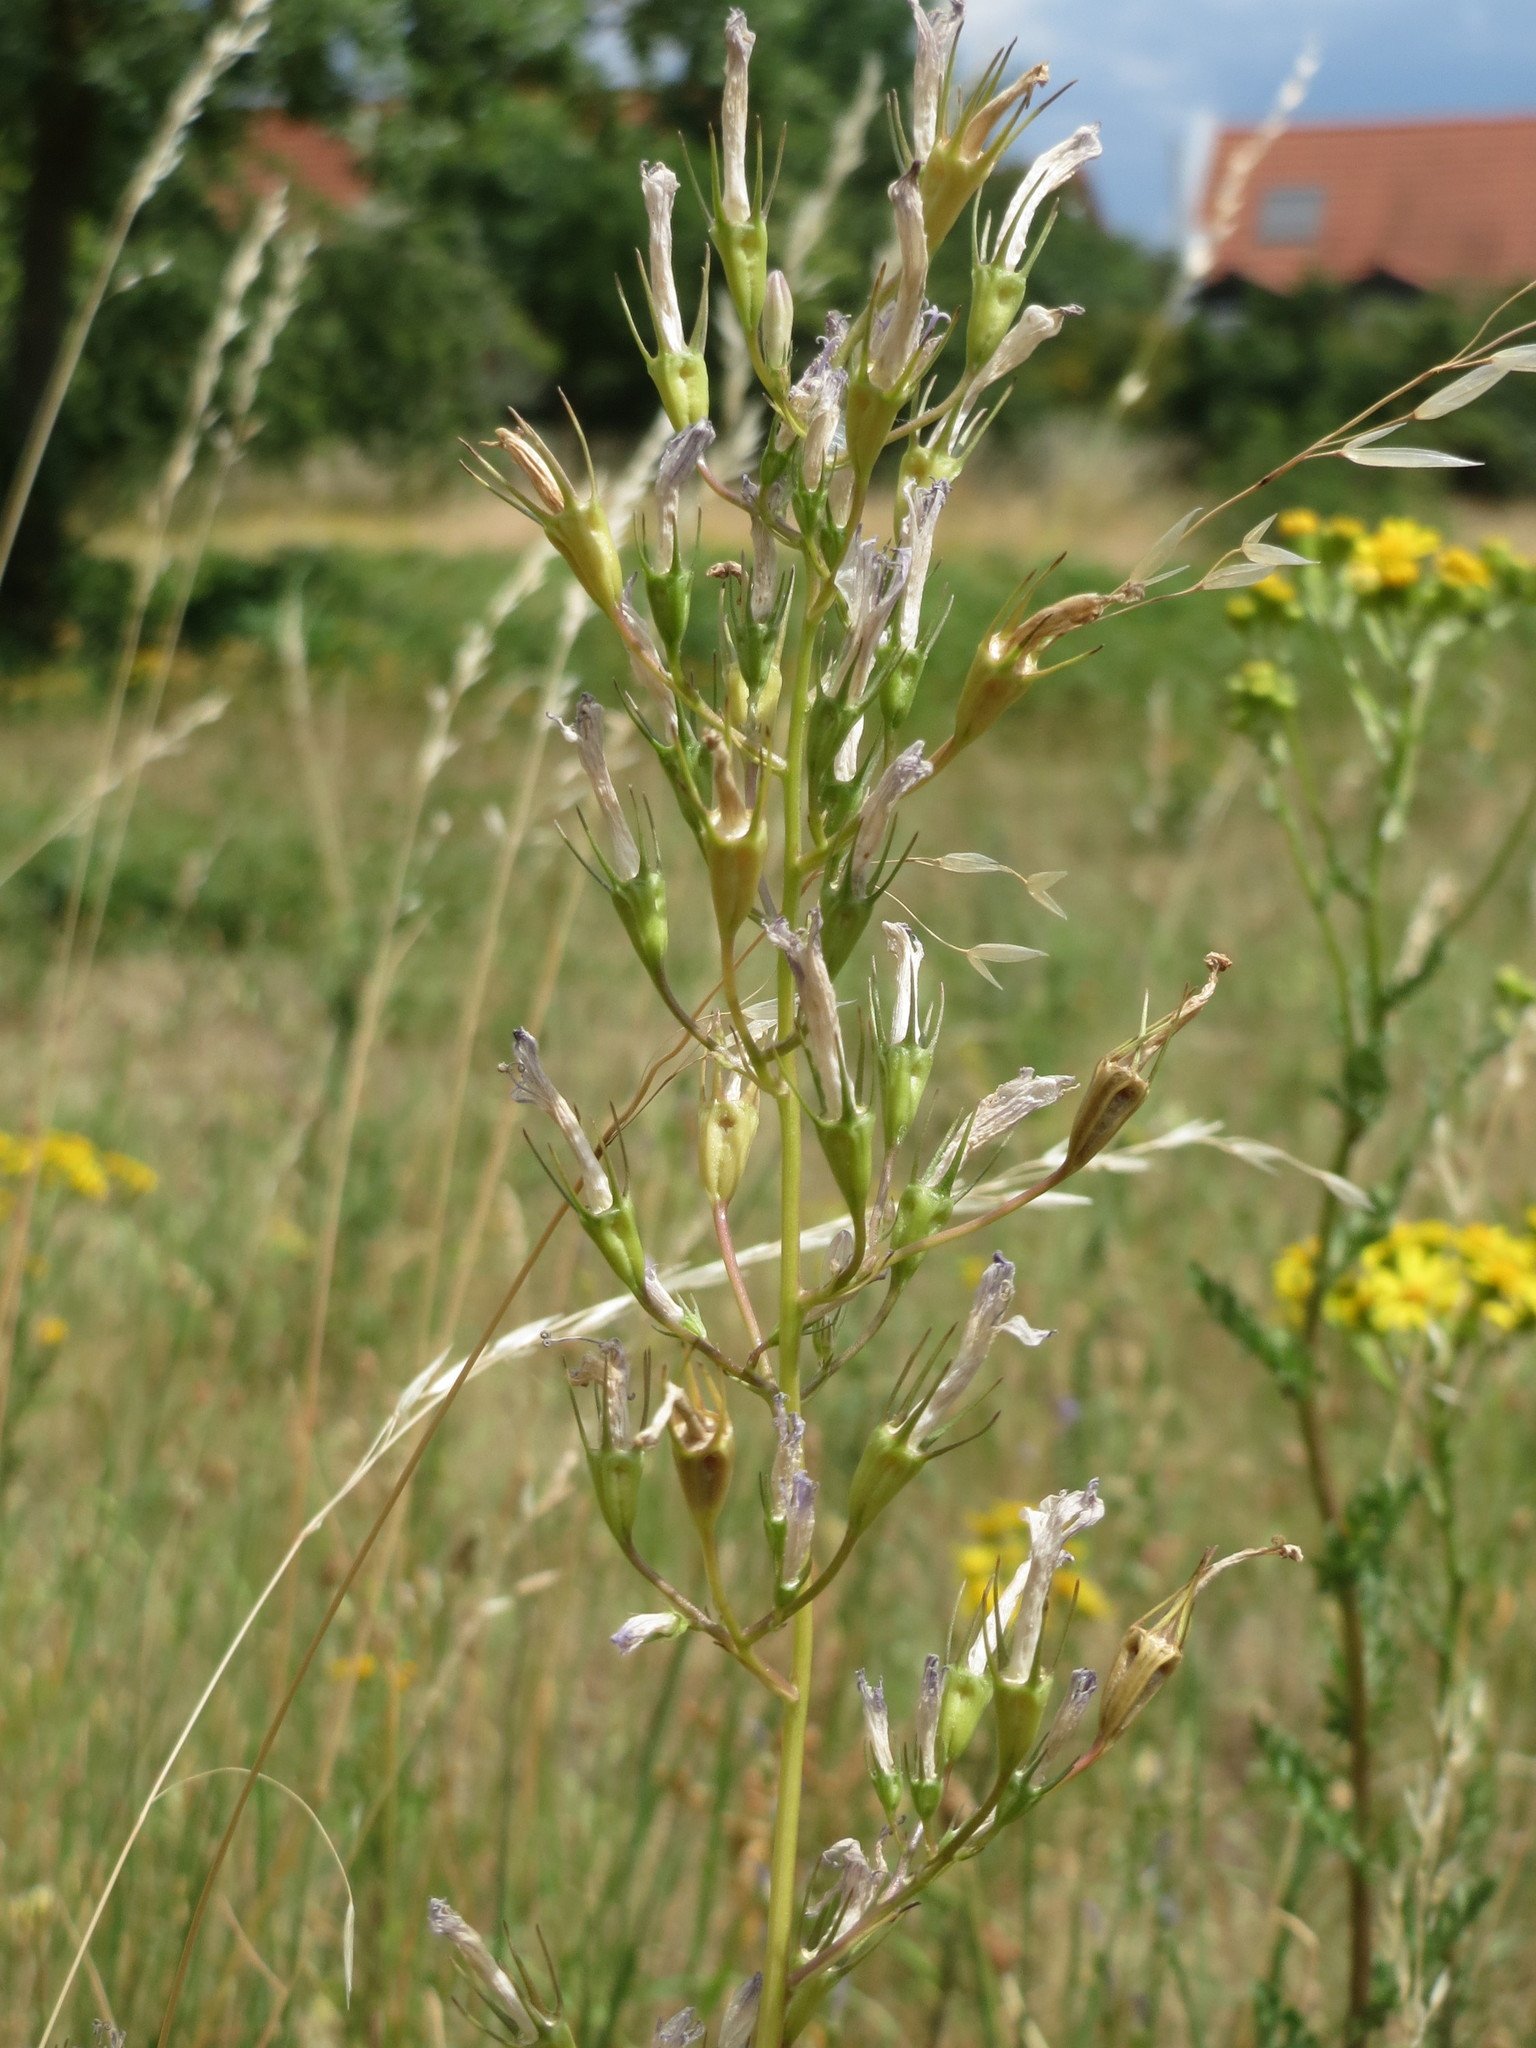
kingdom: Plantae
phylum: Tracheophyta
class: Magnoliopsida
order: Asterales
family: Campanulaceae
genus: Campanula
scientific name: Campanula rapunculus
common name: Rampion bellflower
